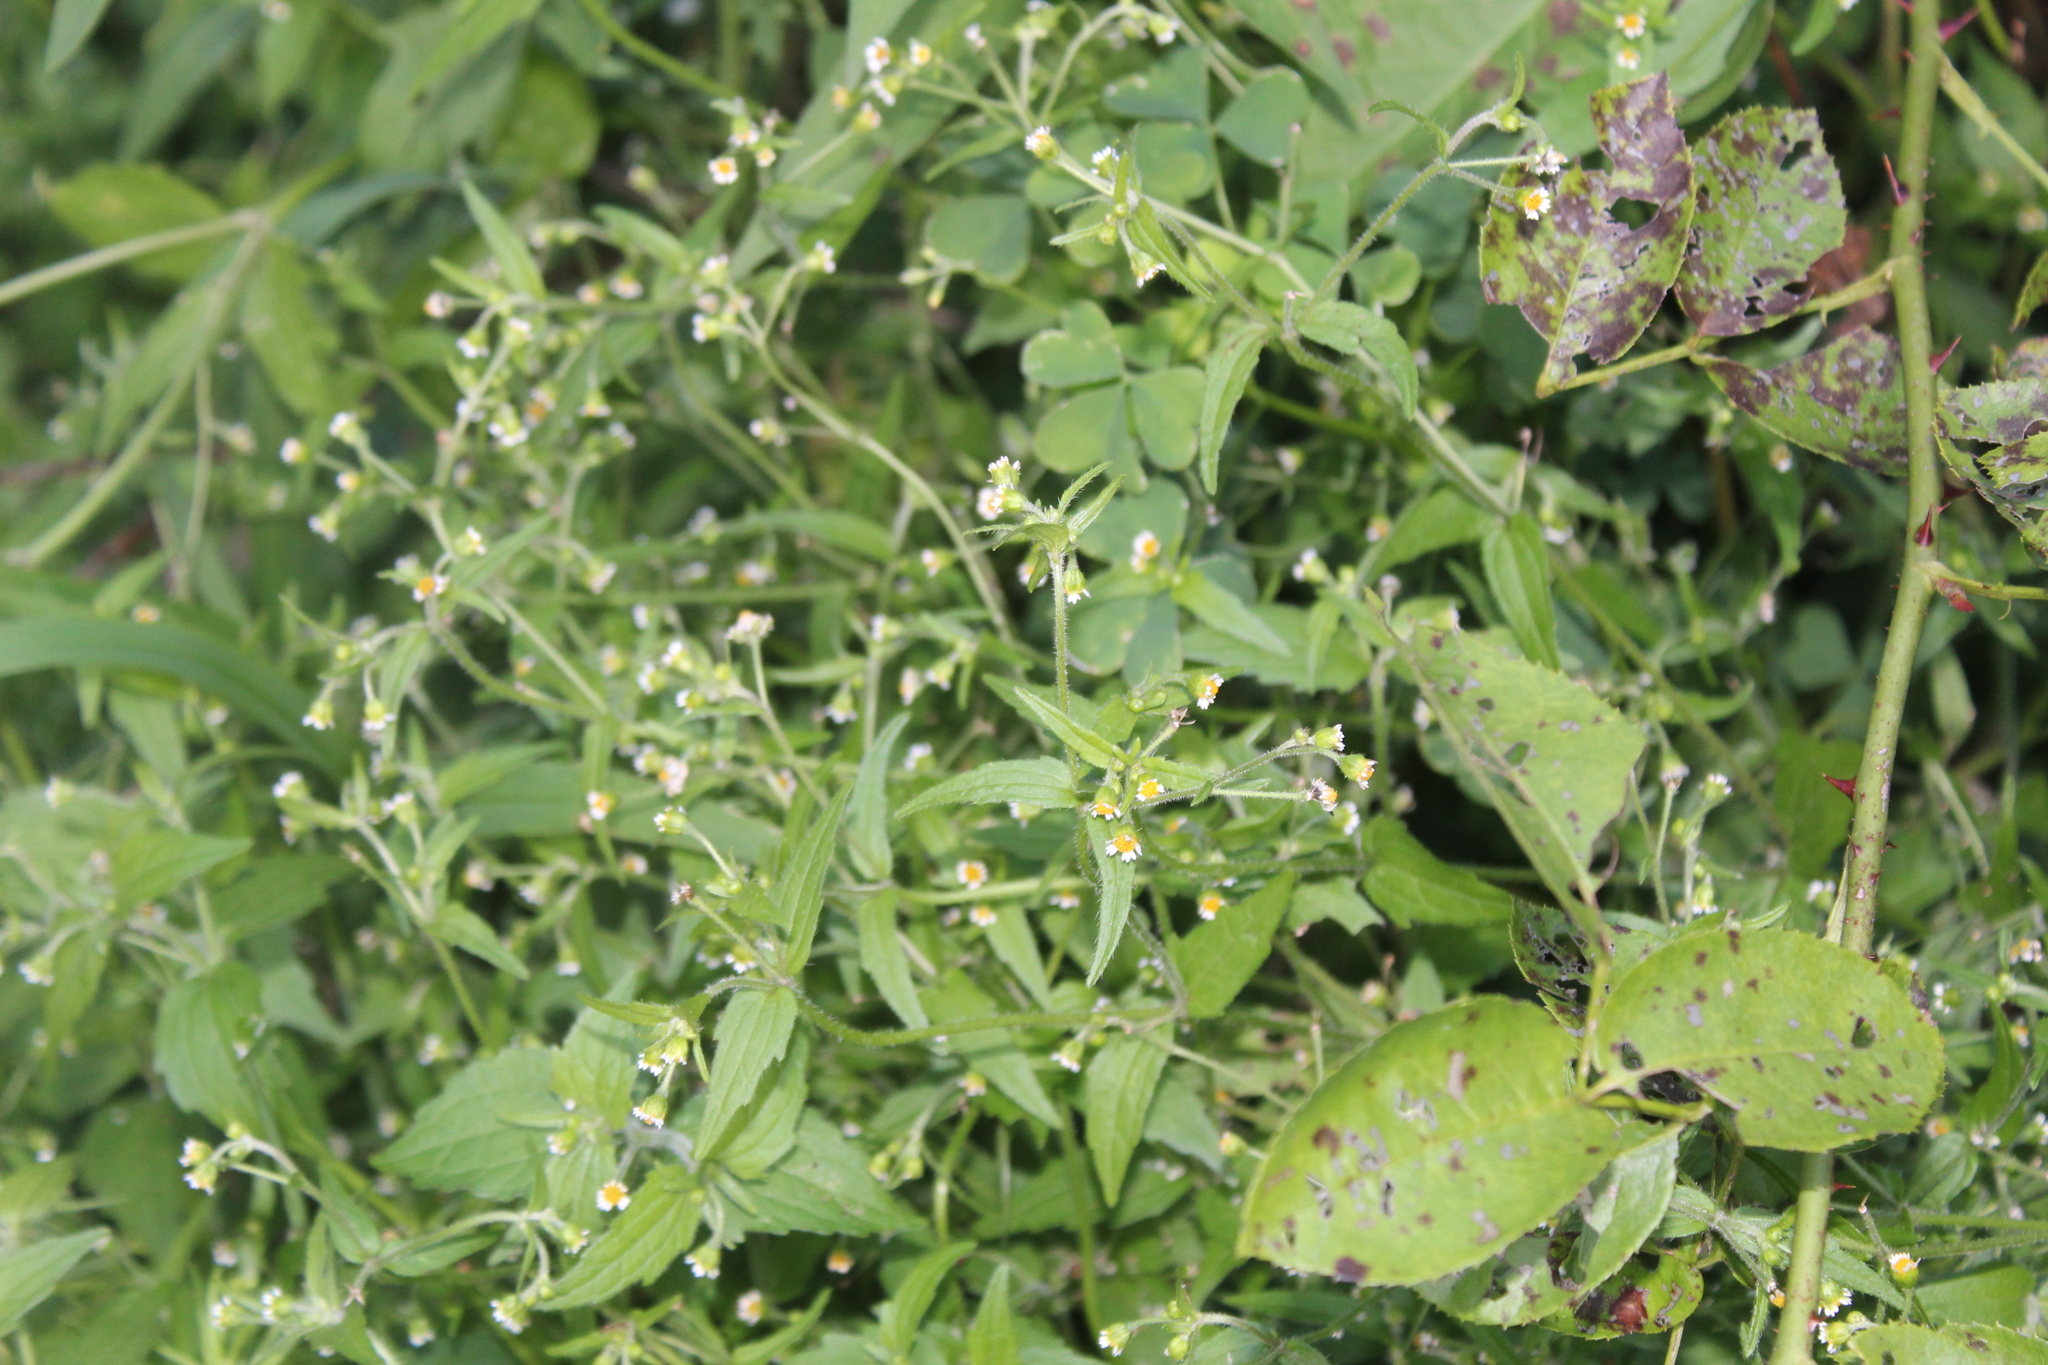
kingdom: Plantae
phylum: Tracheophyta
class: Magnoliopsida
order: Asterales
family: Asteraceae
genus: Galinsoga
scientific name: Galinsoga quadriradiata
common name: Shaggy soldier
